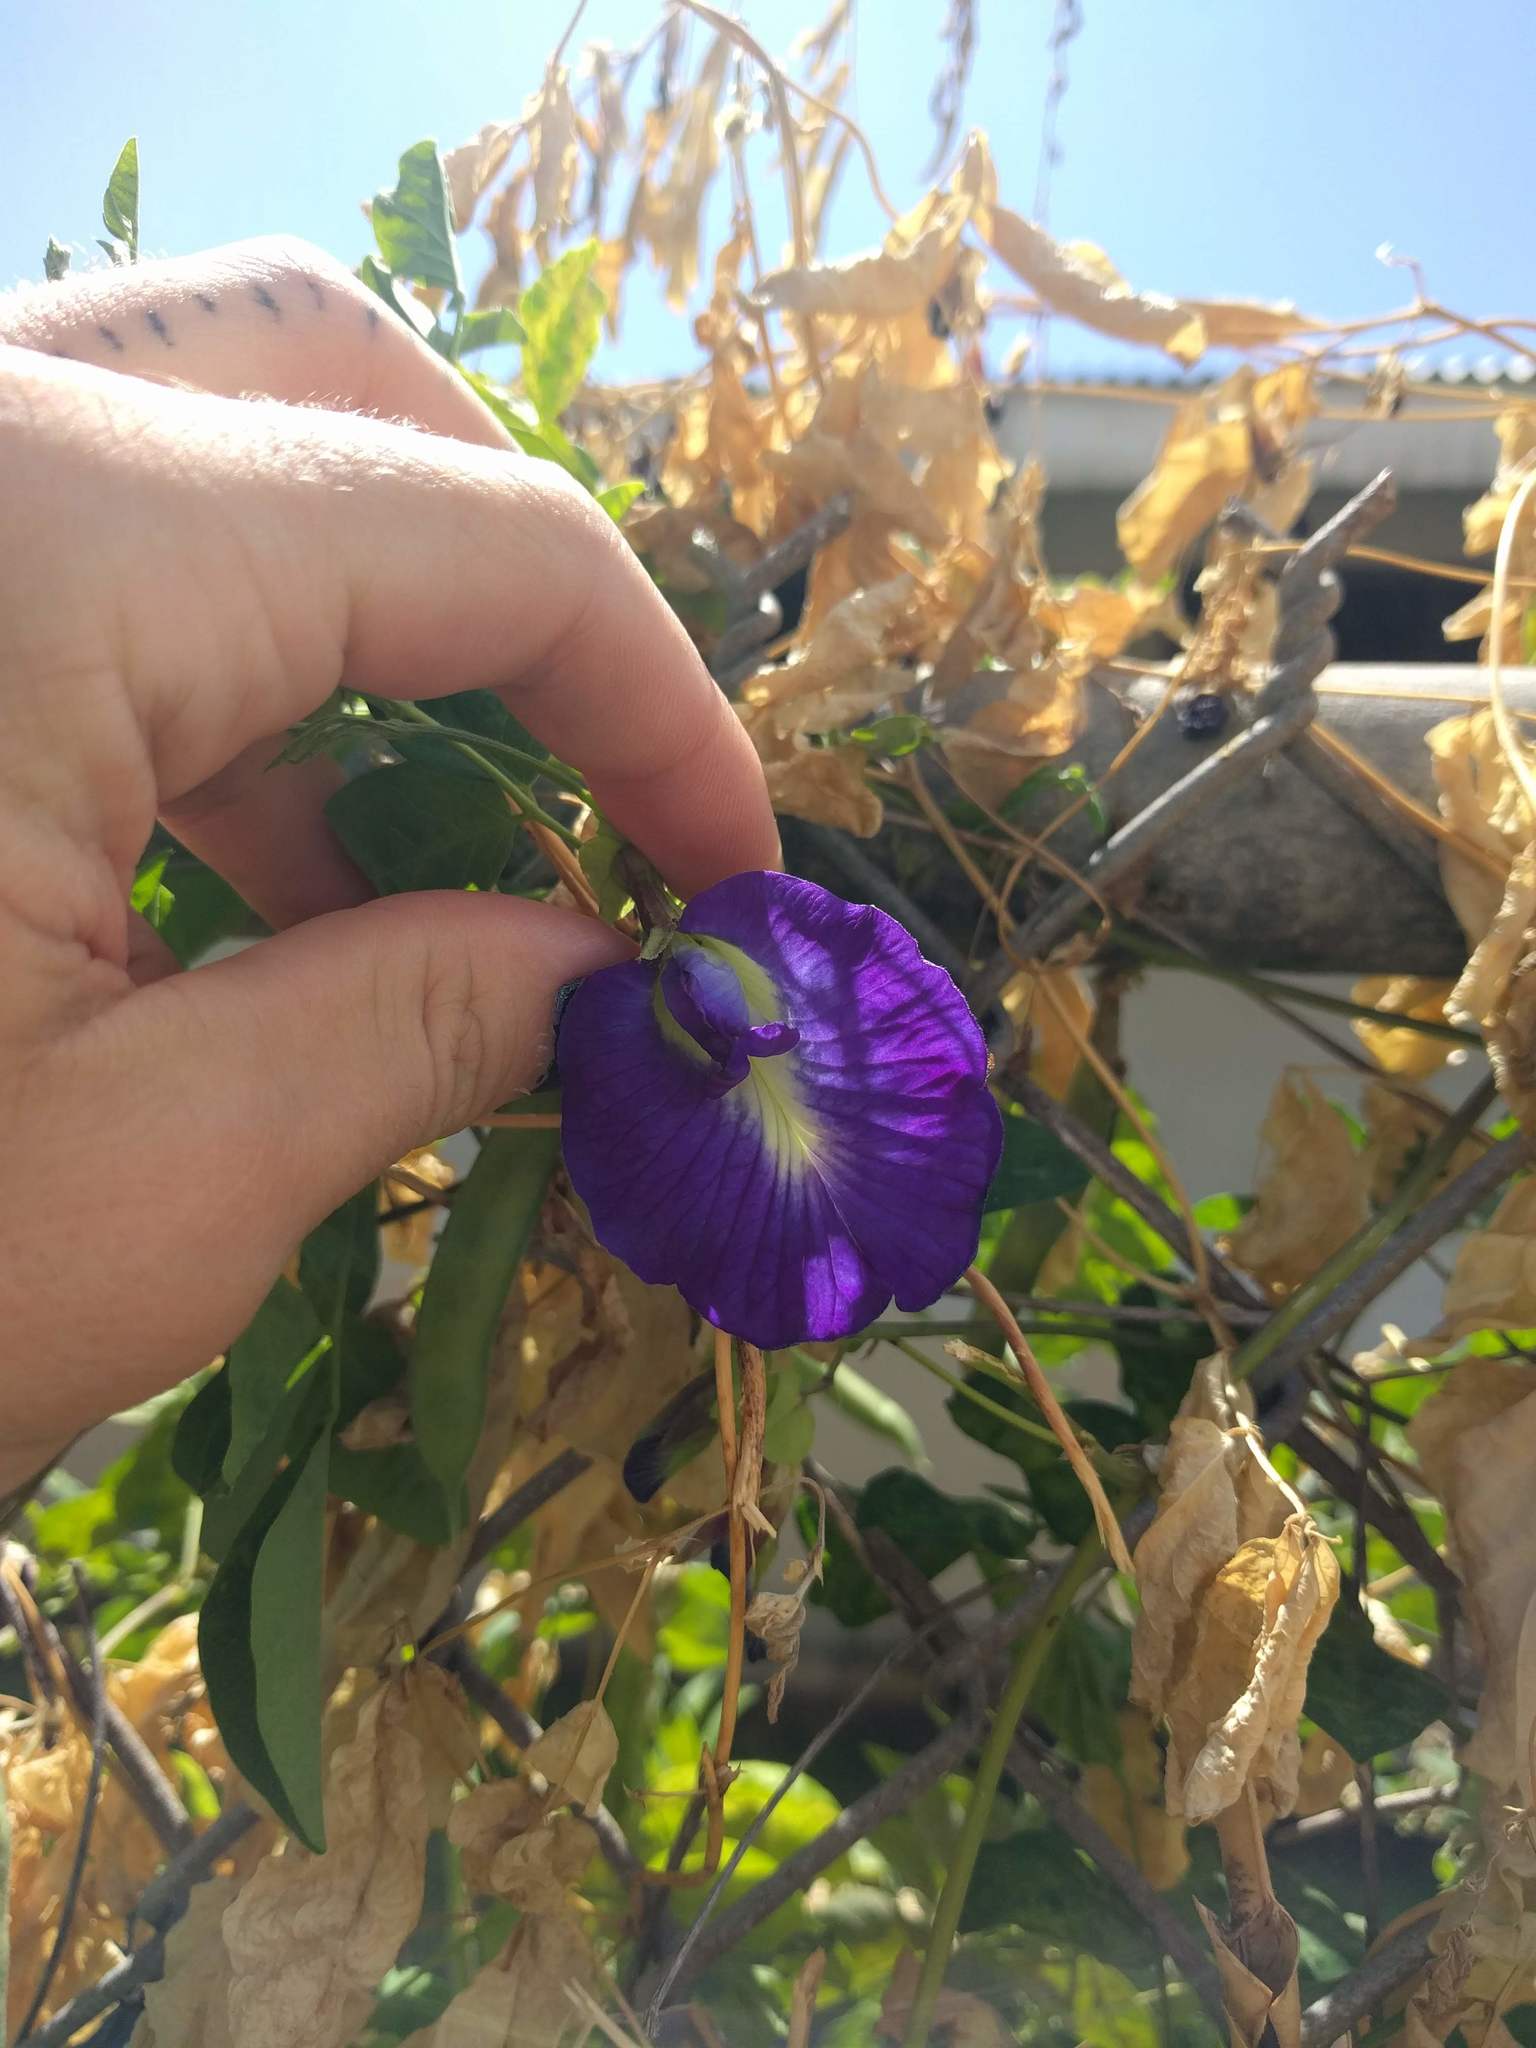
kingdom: Plantae
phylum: Tracheophyta
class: Magnoliopsida
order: Fabales
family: Fabaceae
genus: Clitoria
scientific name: Clitoria ternatea
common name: Asian pigeonwings
